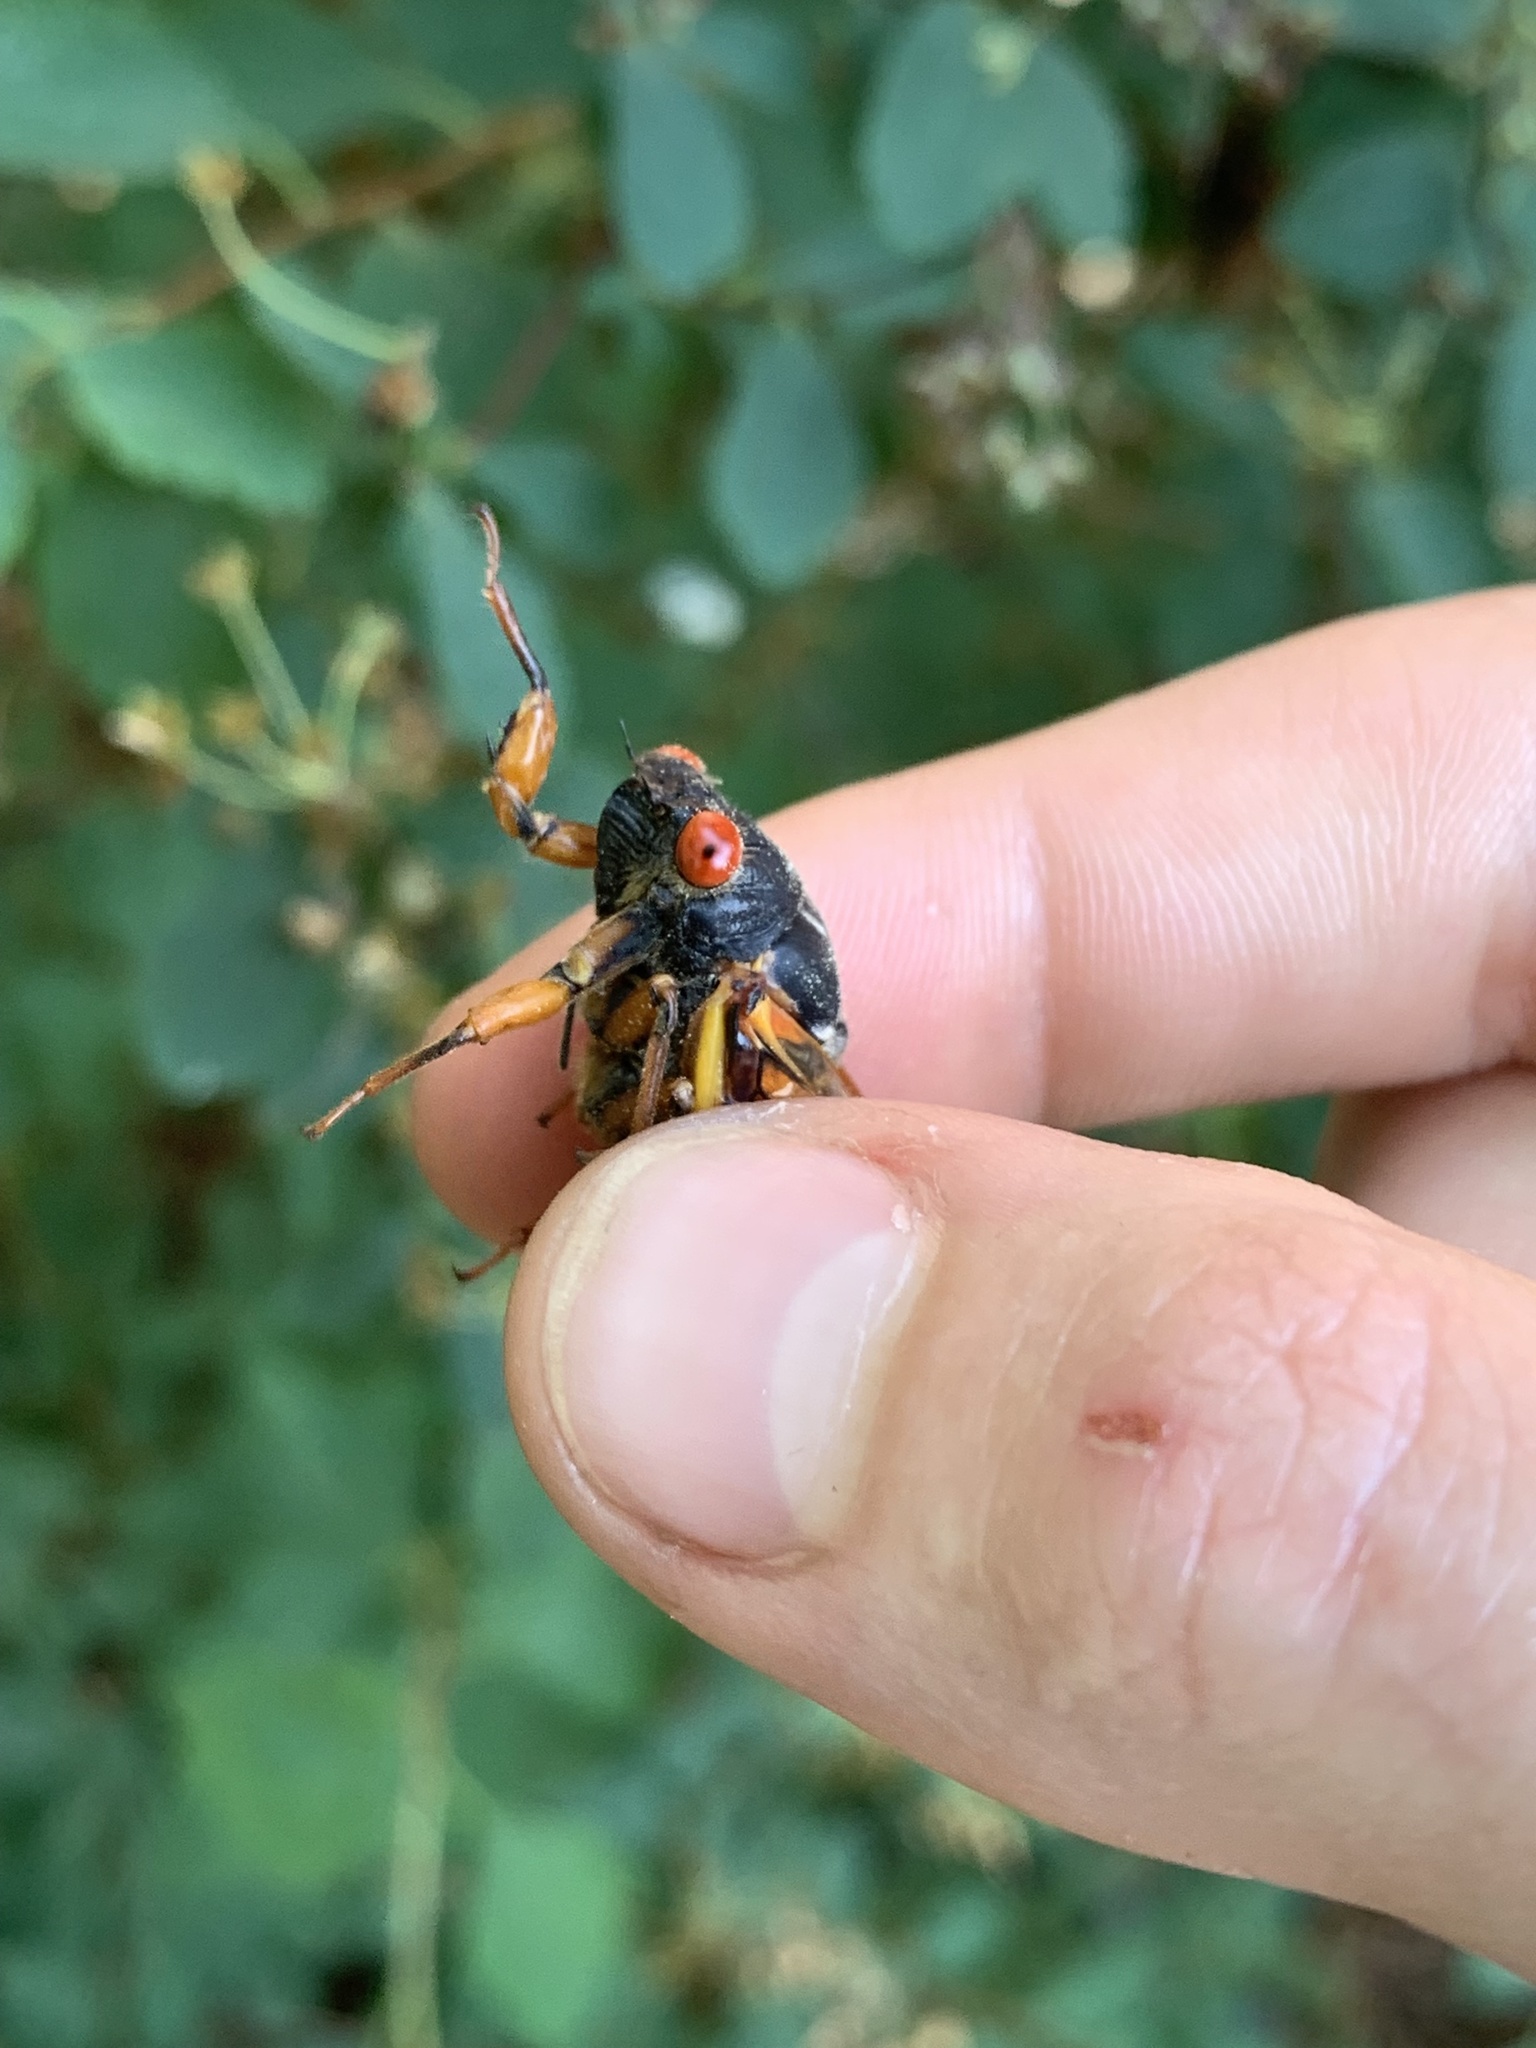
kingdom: Animalia
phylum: Arthropoda
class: Insecta
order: Hemiptera
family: Cicadidae
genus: Magicicada
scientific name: Magicicada septendecula
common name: Decula periodical cicada
